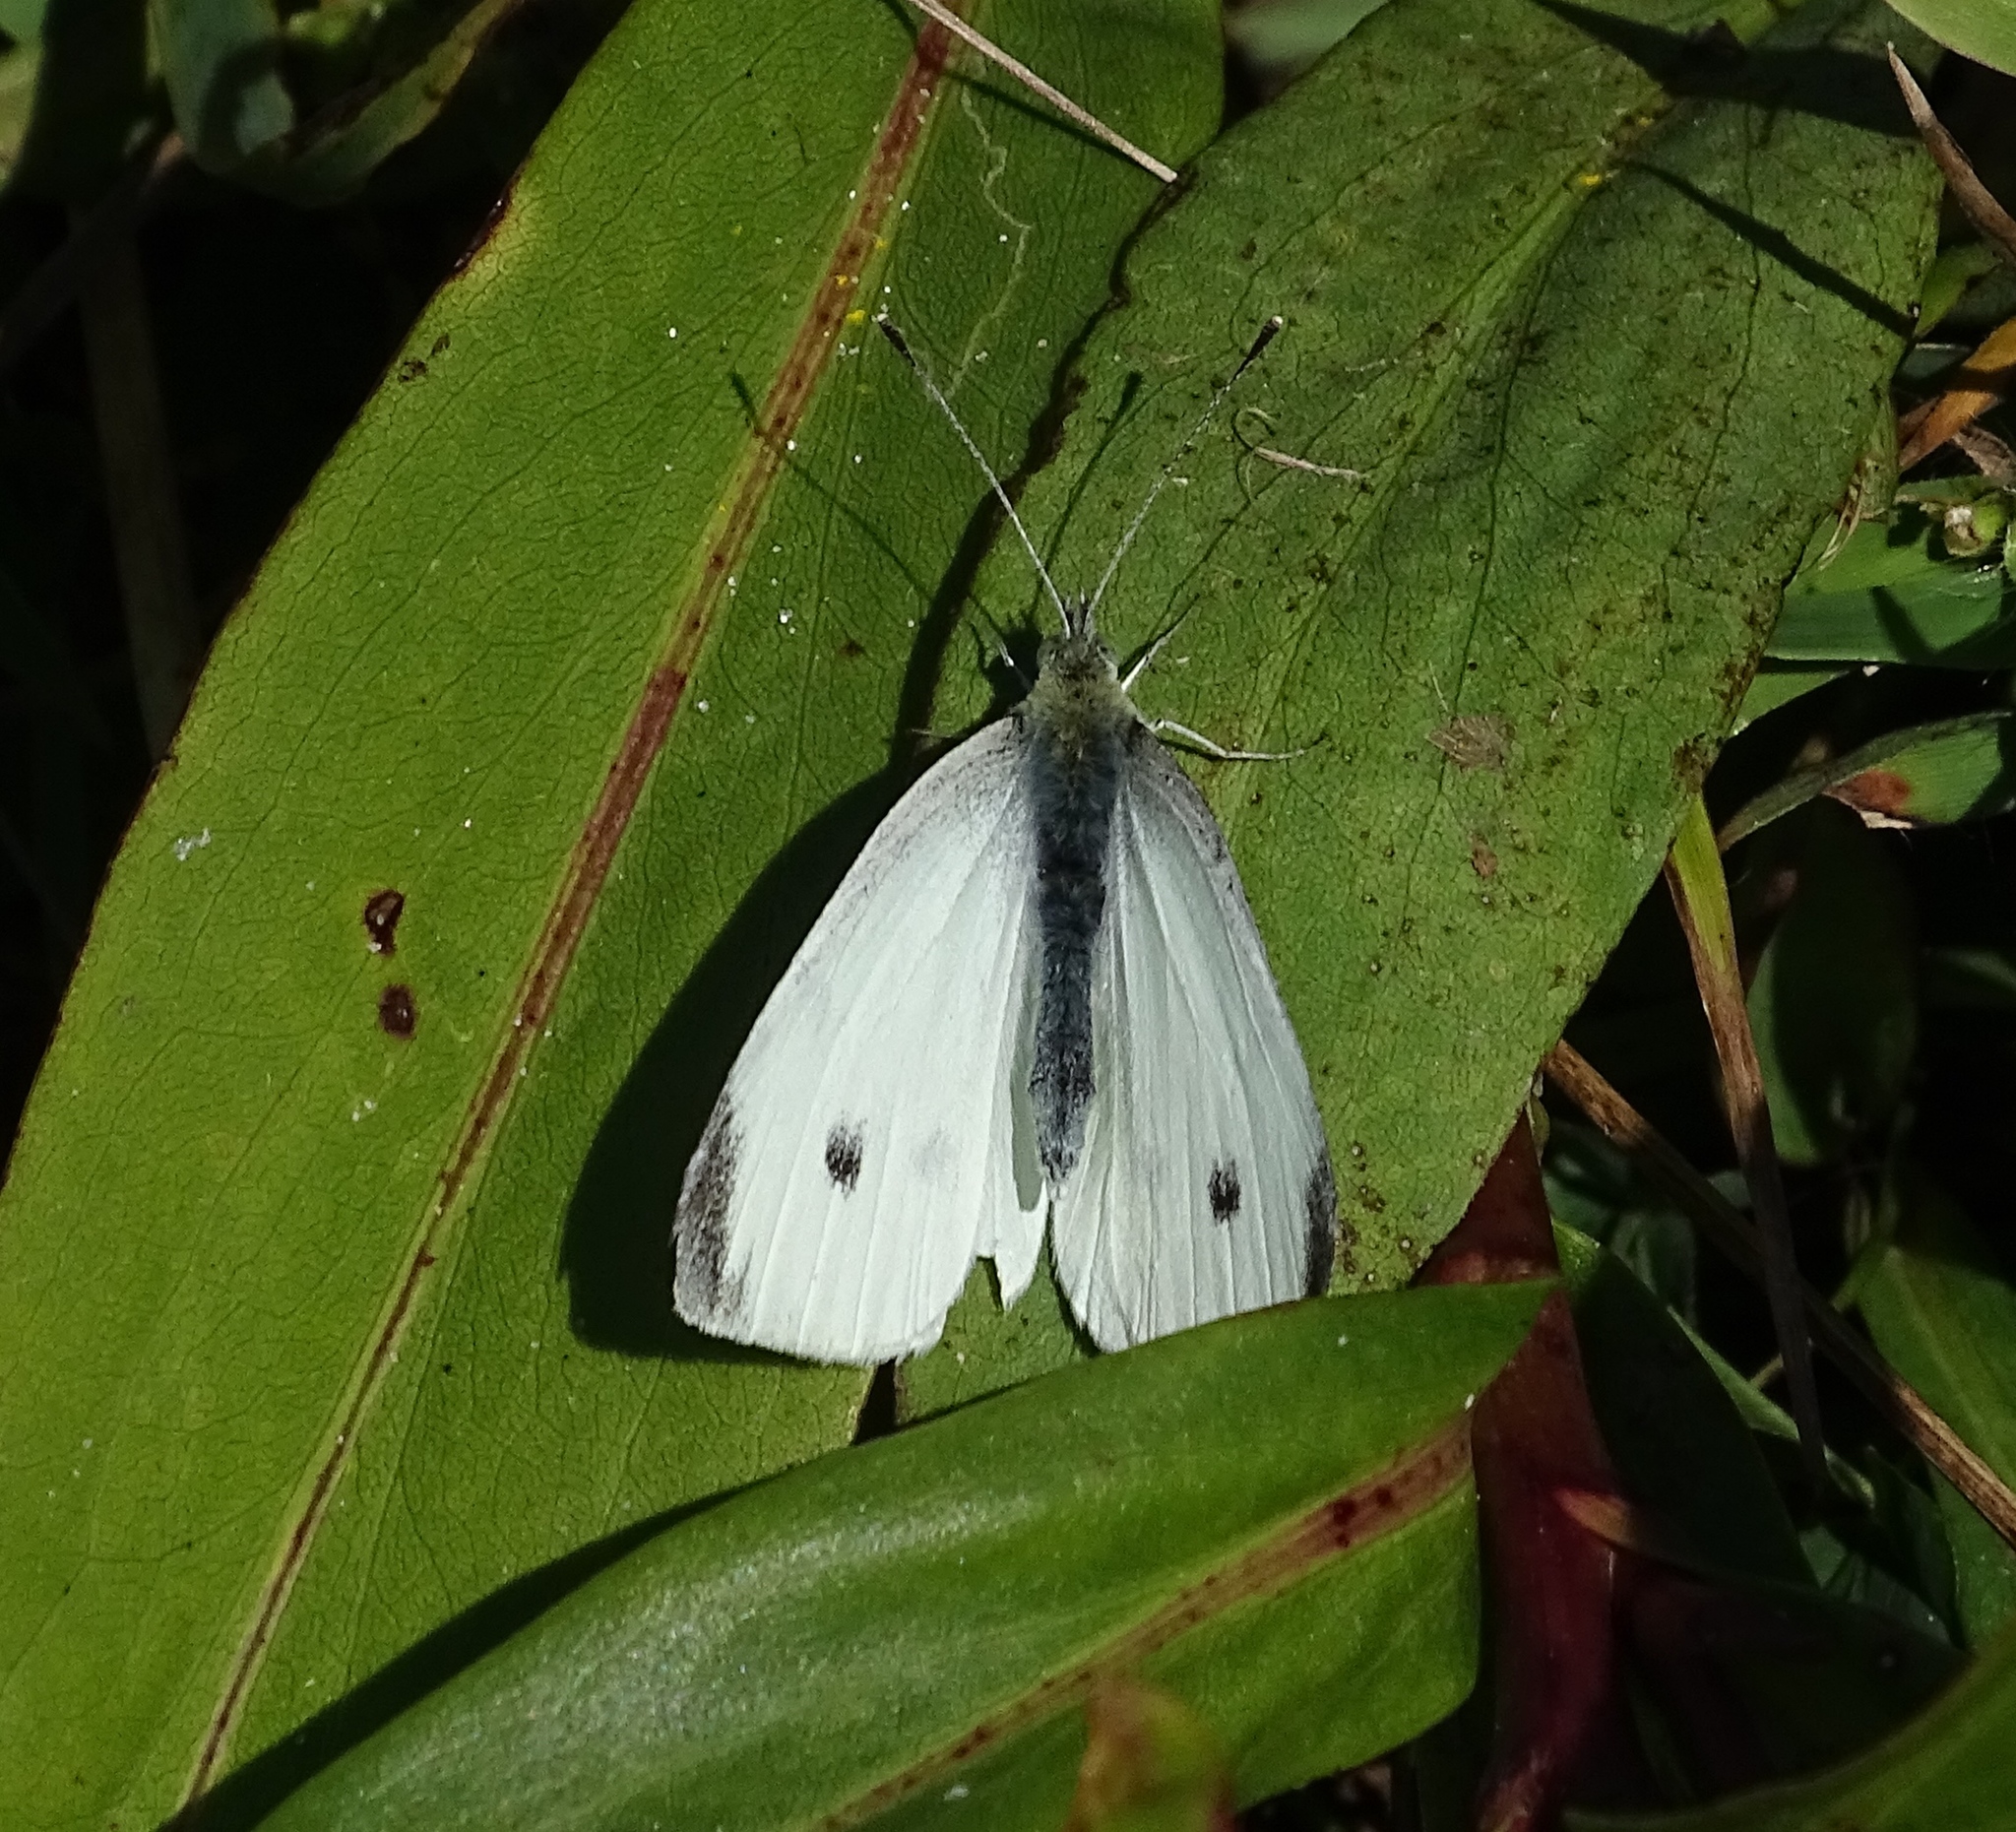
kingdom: Animalia
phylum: Arthropoda
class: Insecta
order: Lepidoptera
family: Pieridae
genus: Pieris
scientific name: Pieris rapae
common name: Small white
